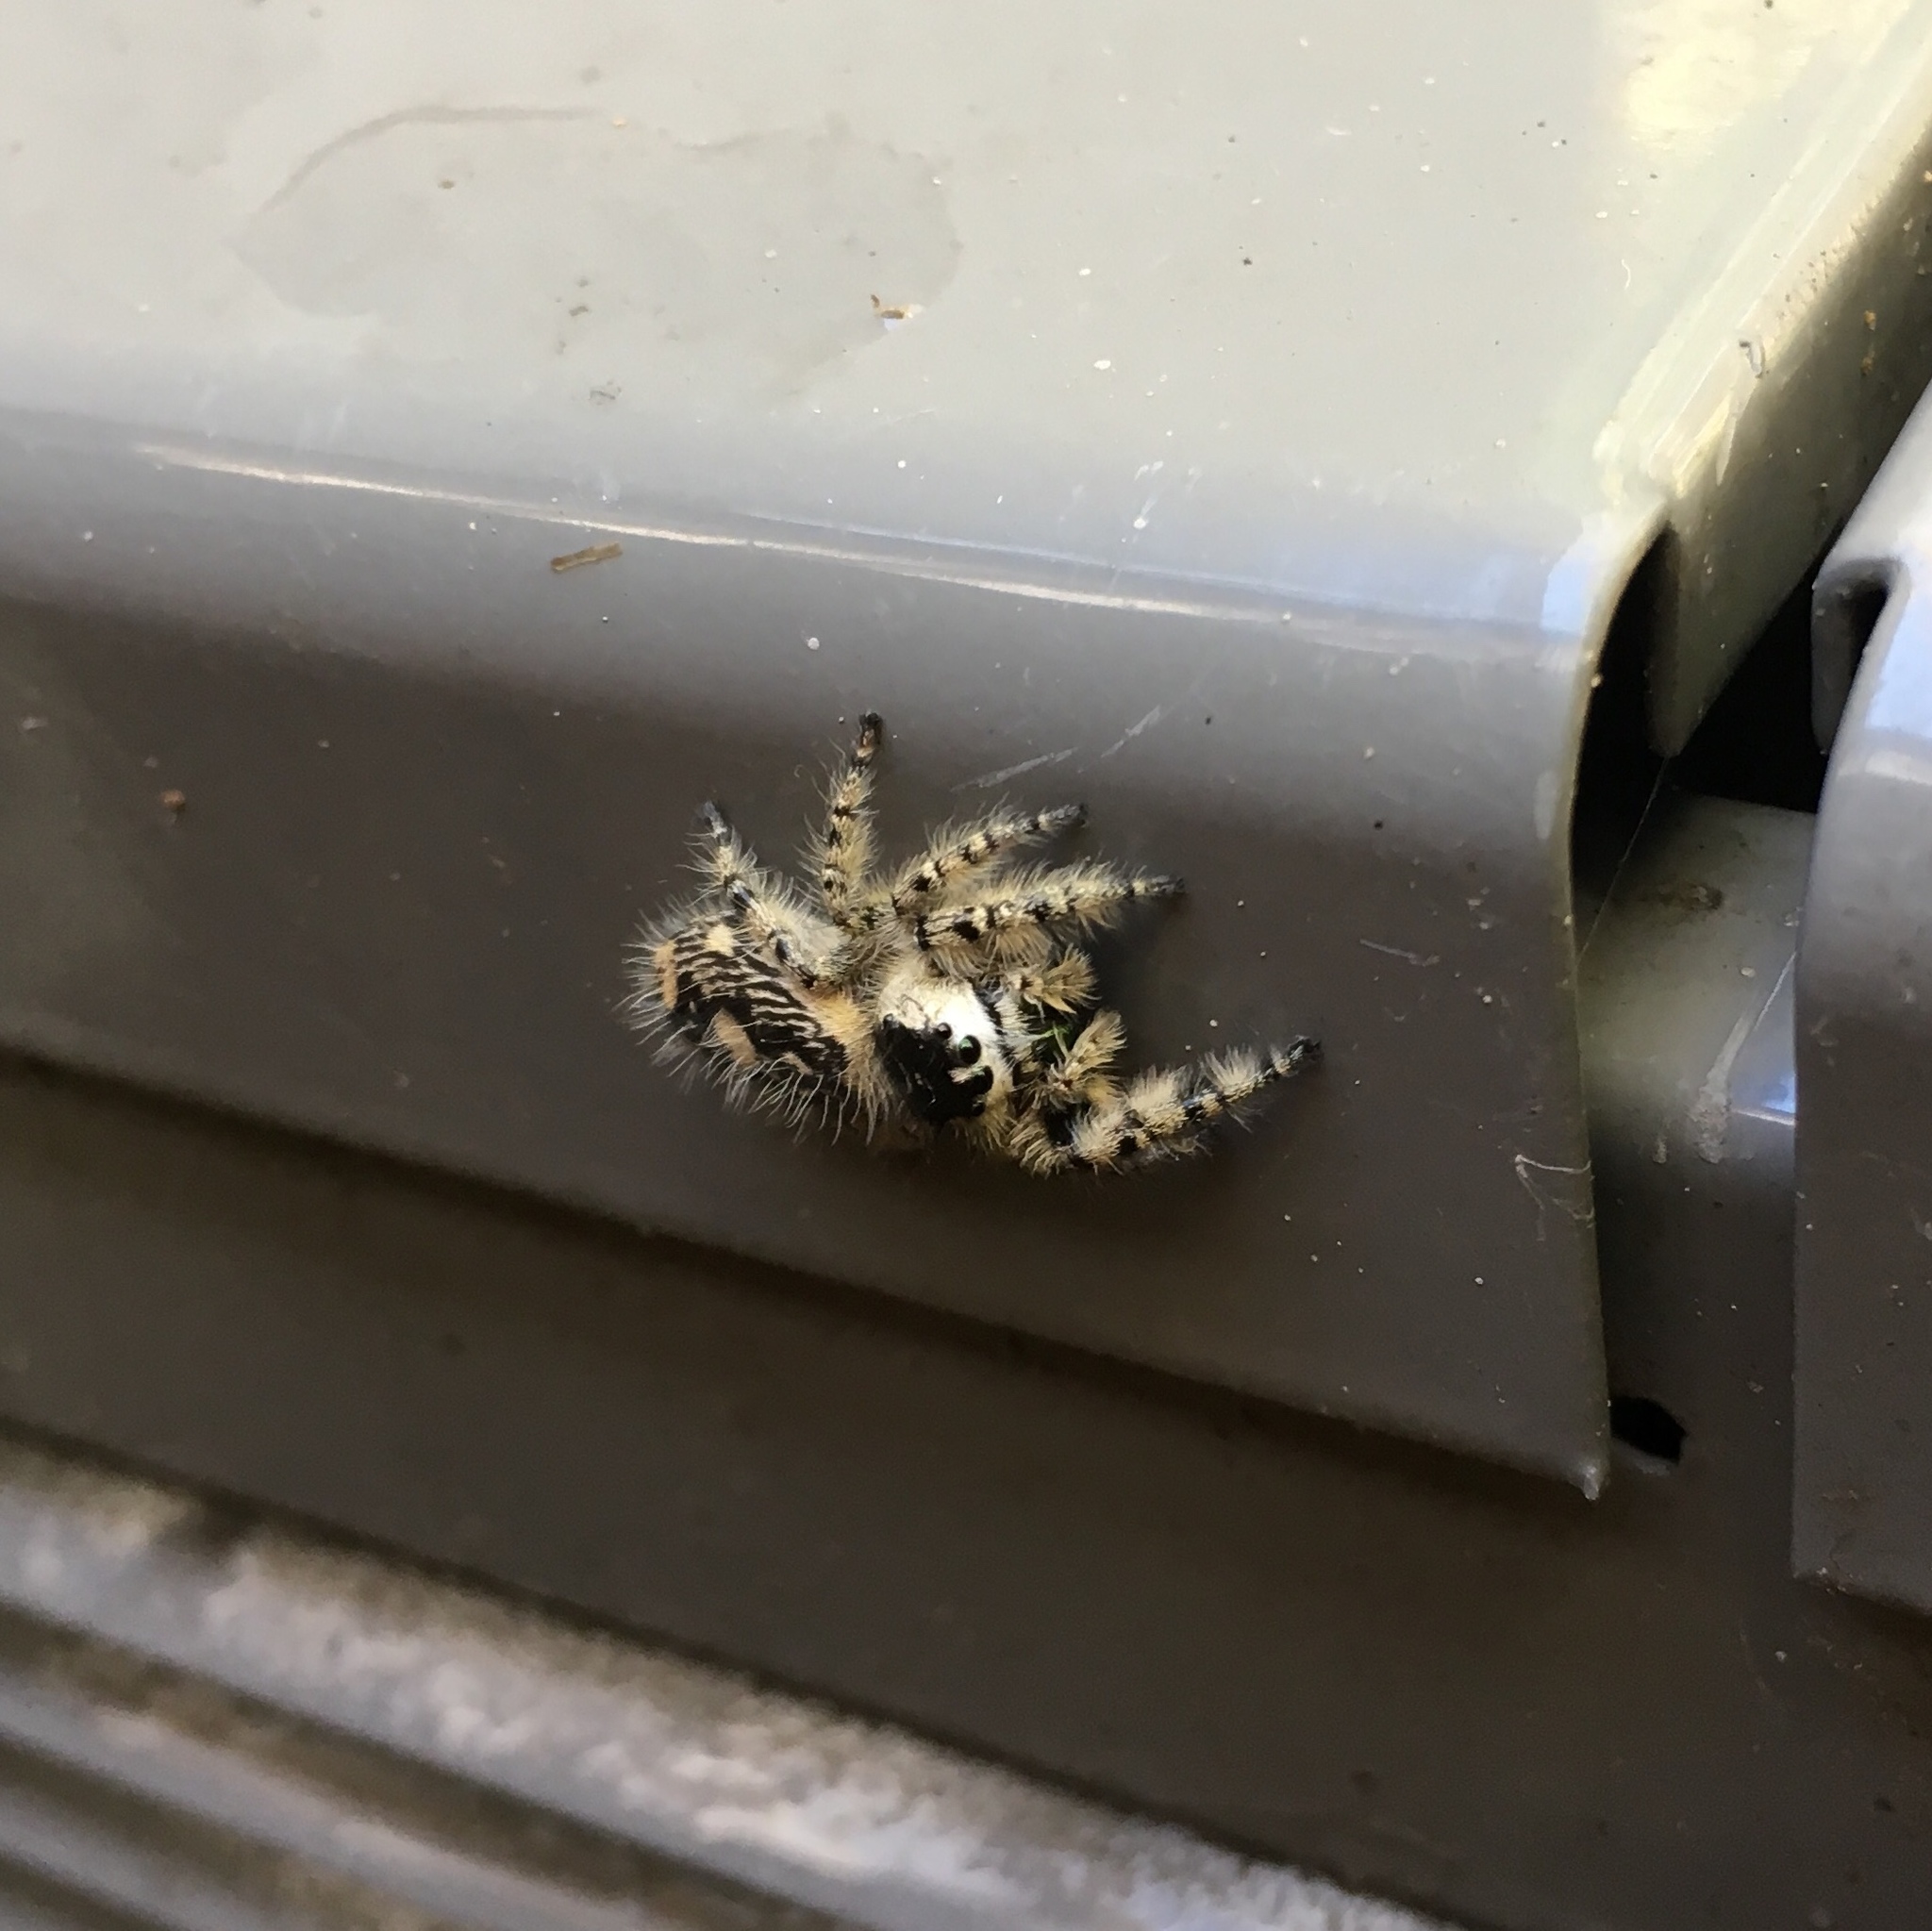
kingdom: Animalia
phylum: Arthropoda
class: Arachnida
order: Araneae
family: Salticidae
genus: Phidippus
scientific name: Phidippus otiosus
